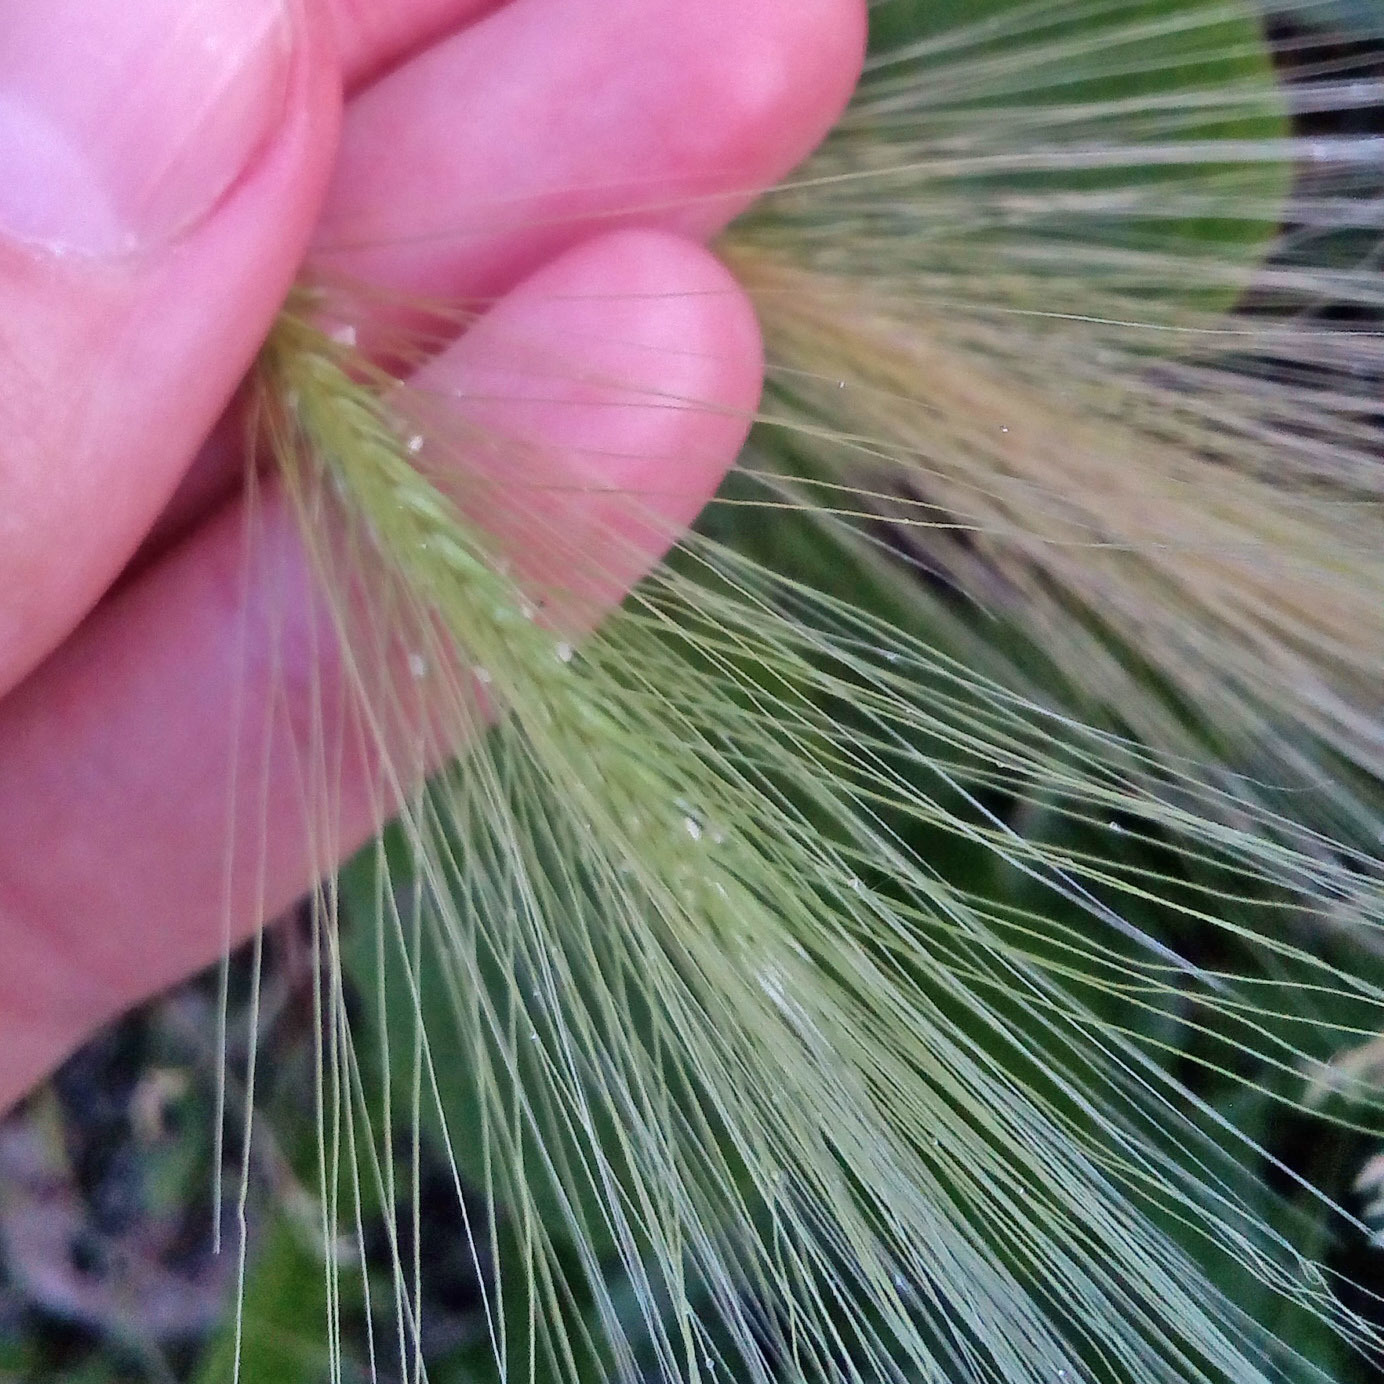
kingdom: Plantae
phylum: Tracheophyta
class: Liliopsida
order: Poales
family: Poaceae
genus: Hordeum
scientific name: Hordeum jubatum
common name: Foxtail barley
